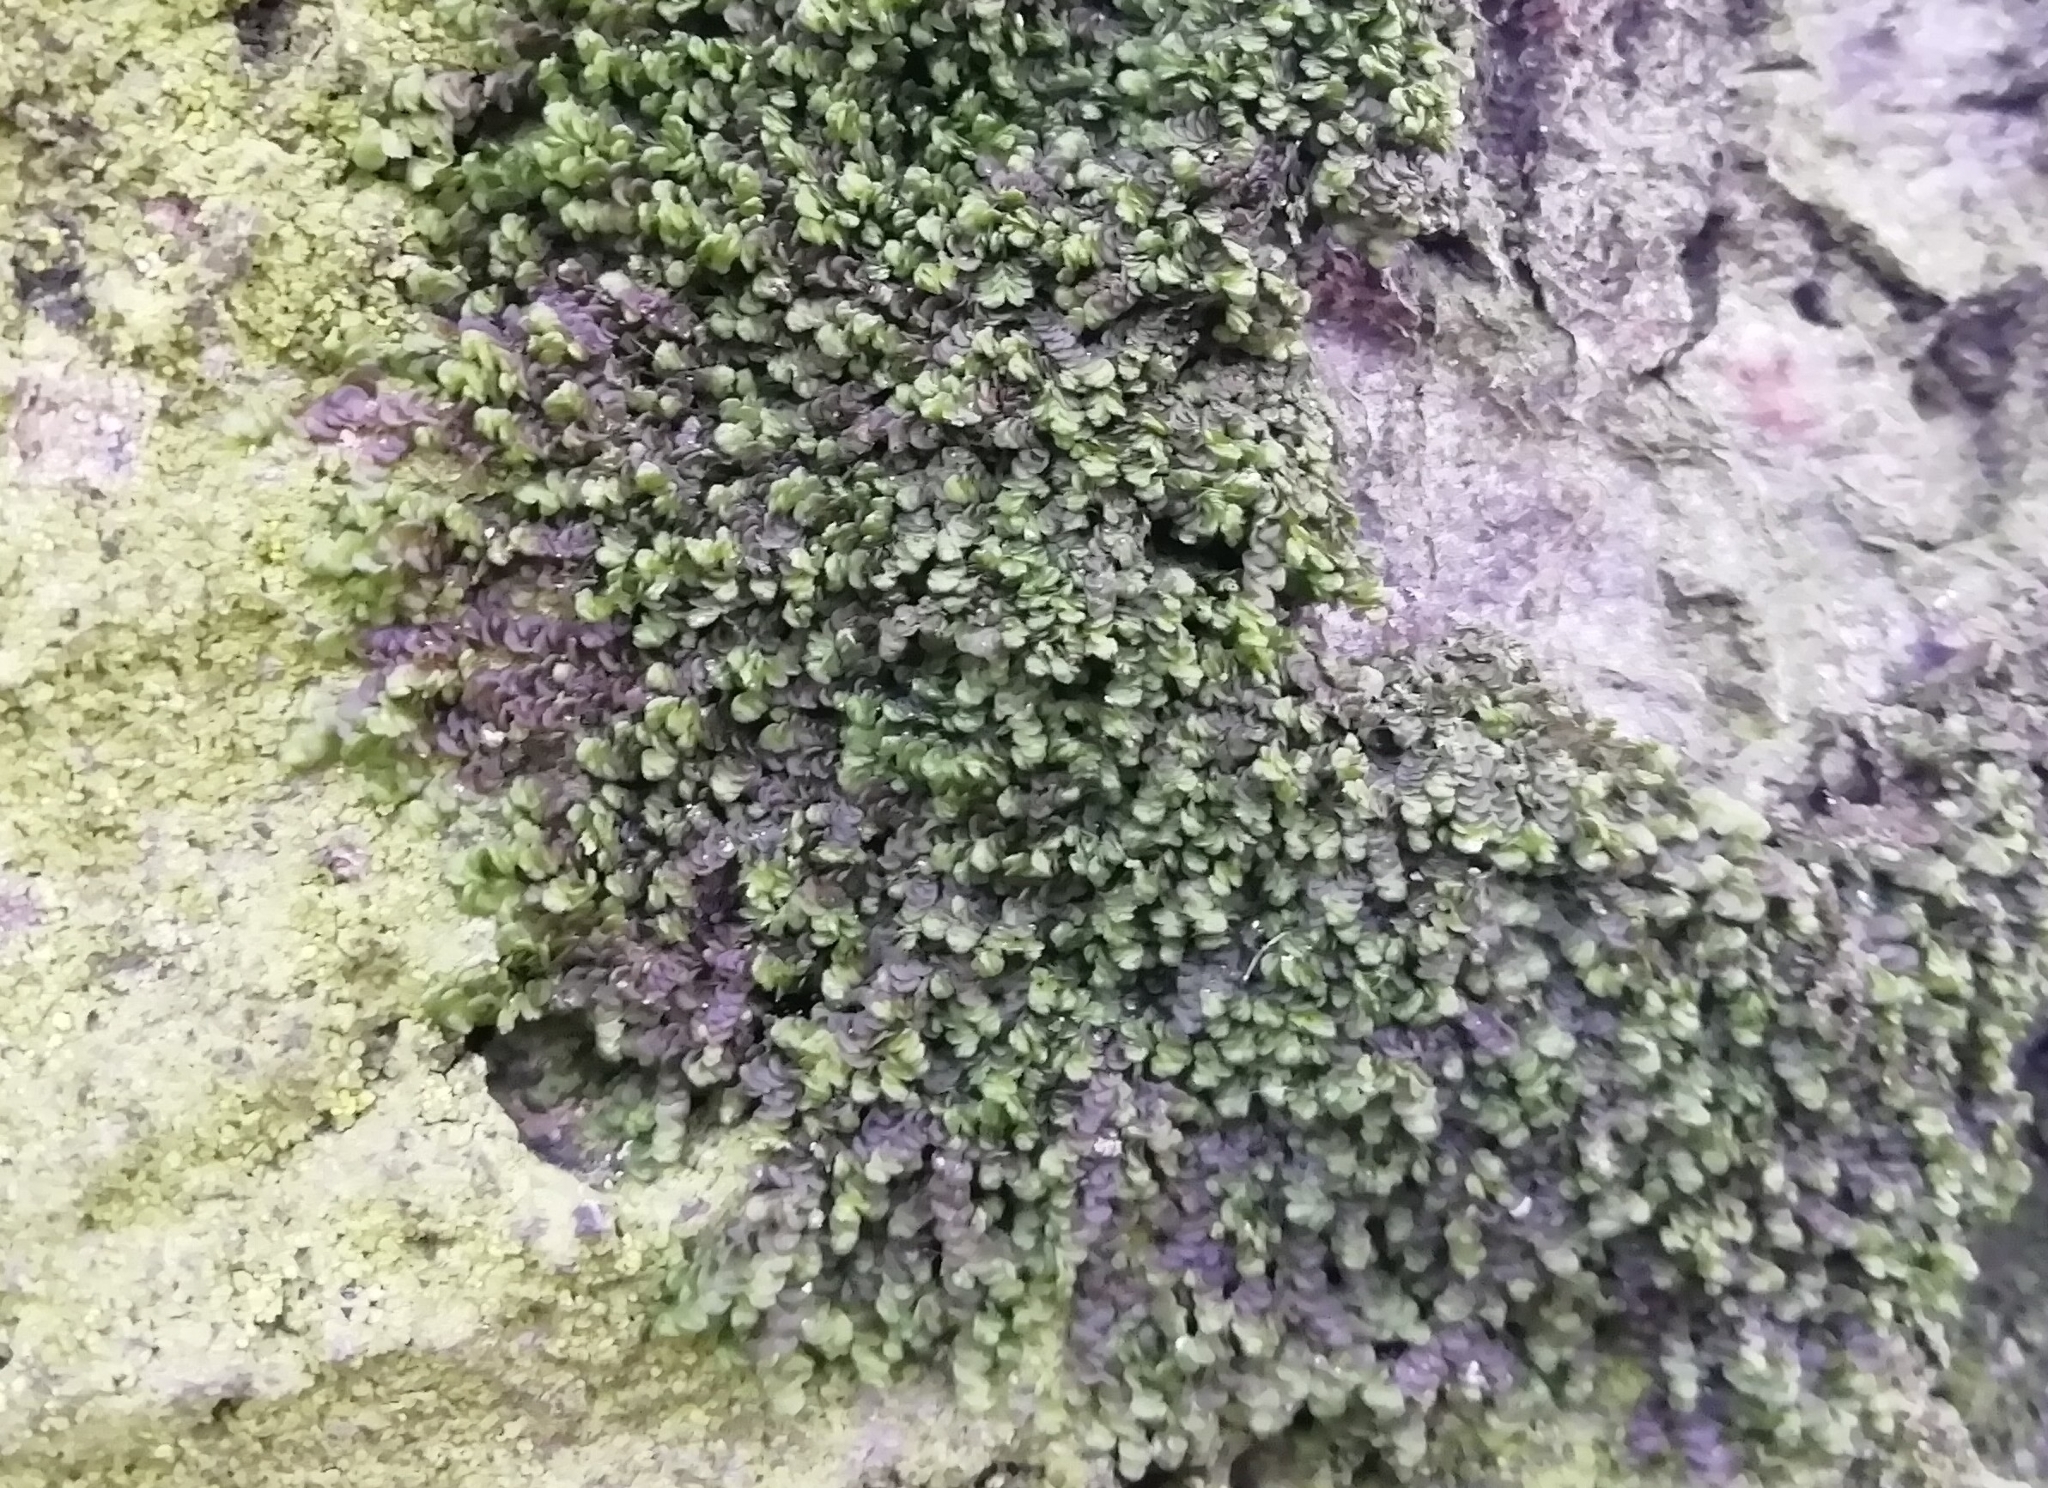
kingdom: Plantae
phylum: Marchantiophyta
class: Jungermanniopsida
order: Porellales
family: Frullaniaceae
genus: Frullania
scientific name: Frullania dilatata
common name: Dilated scalewort
